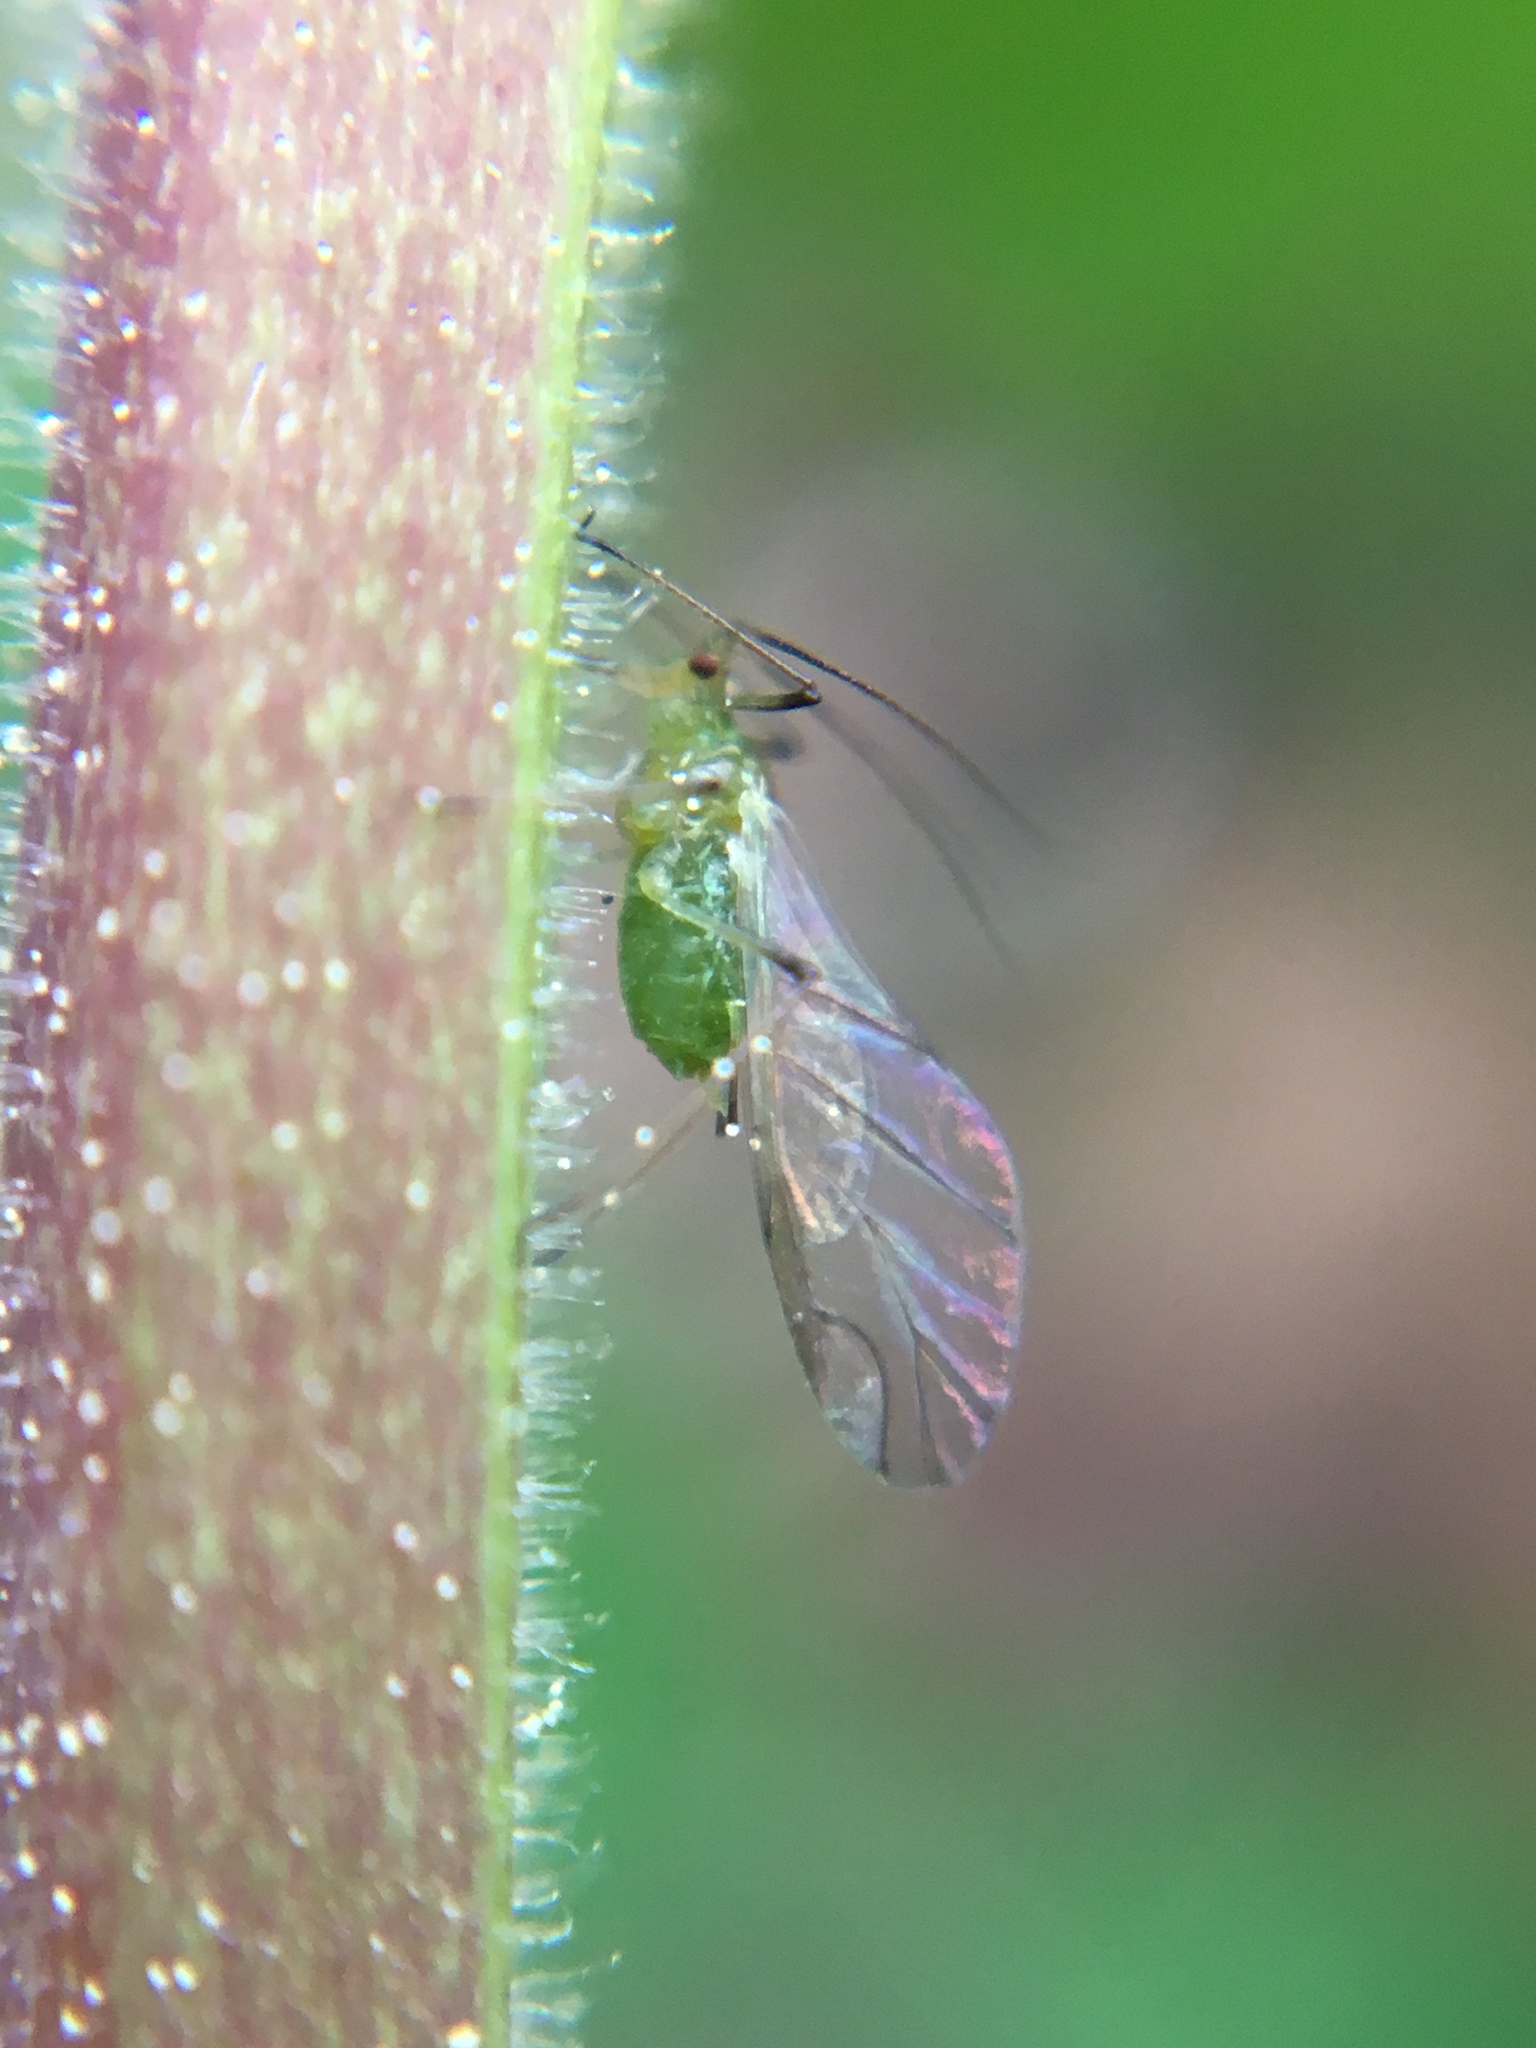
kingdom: Animalia
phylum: Arthropoda
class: Insecta
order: Hemiptera
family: Aphididae
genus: Macrosiphum
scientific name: Macrosiphum euphorbiae
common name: Potato aphid
